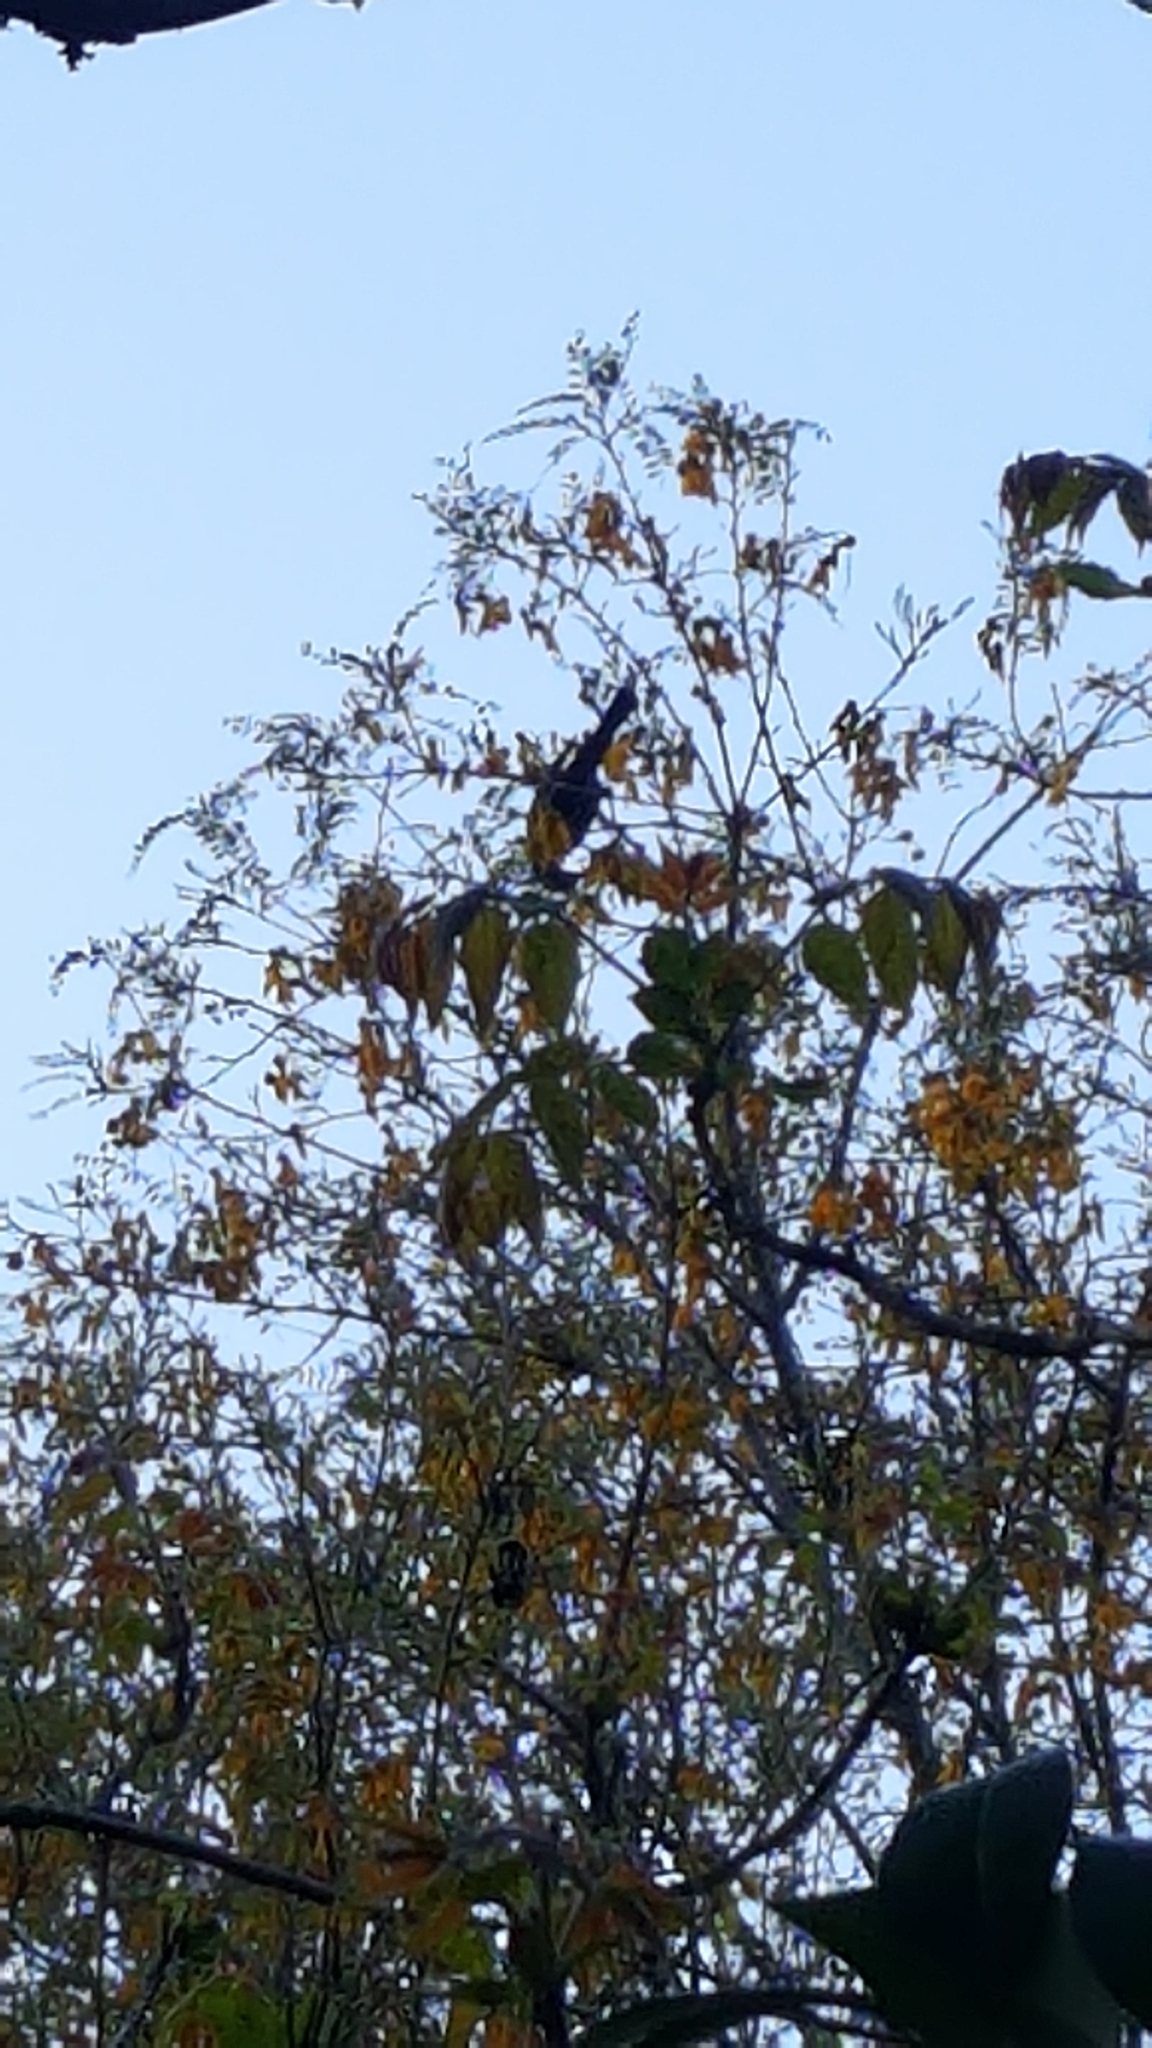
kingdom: Animalia
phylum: Chordata
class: Aves
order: Passeriformes
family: Meliphagidae
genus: Prosthemadera
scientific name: Prosthemadera novaeseelandiae
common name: Tui
